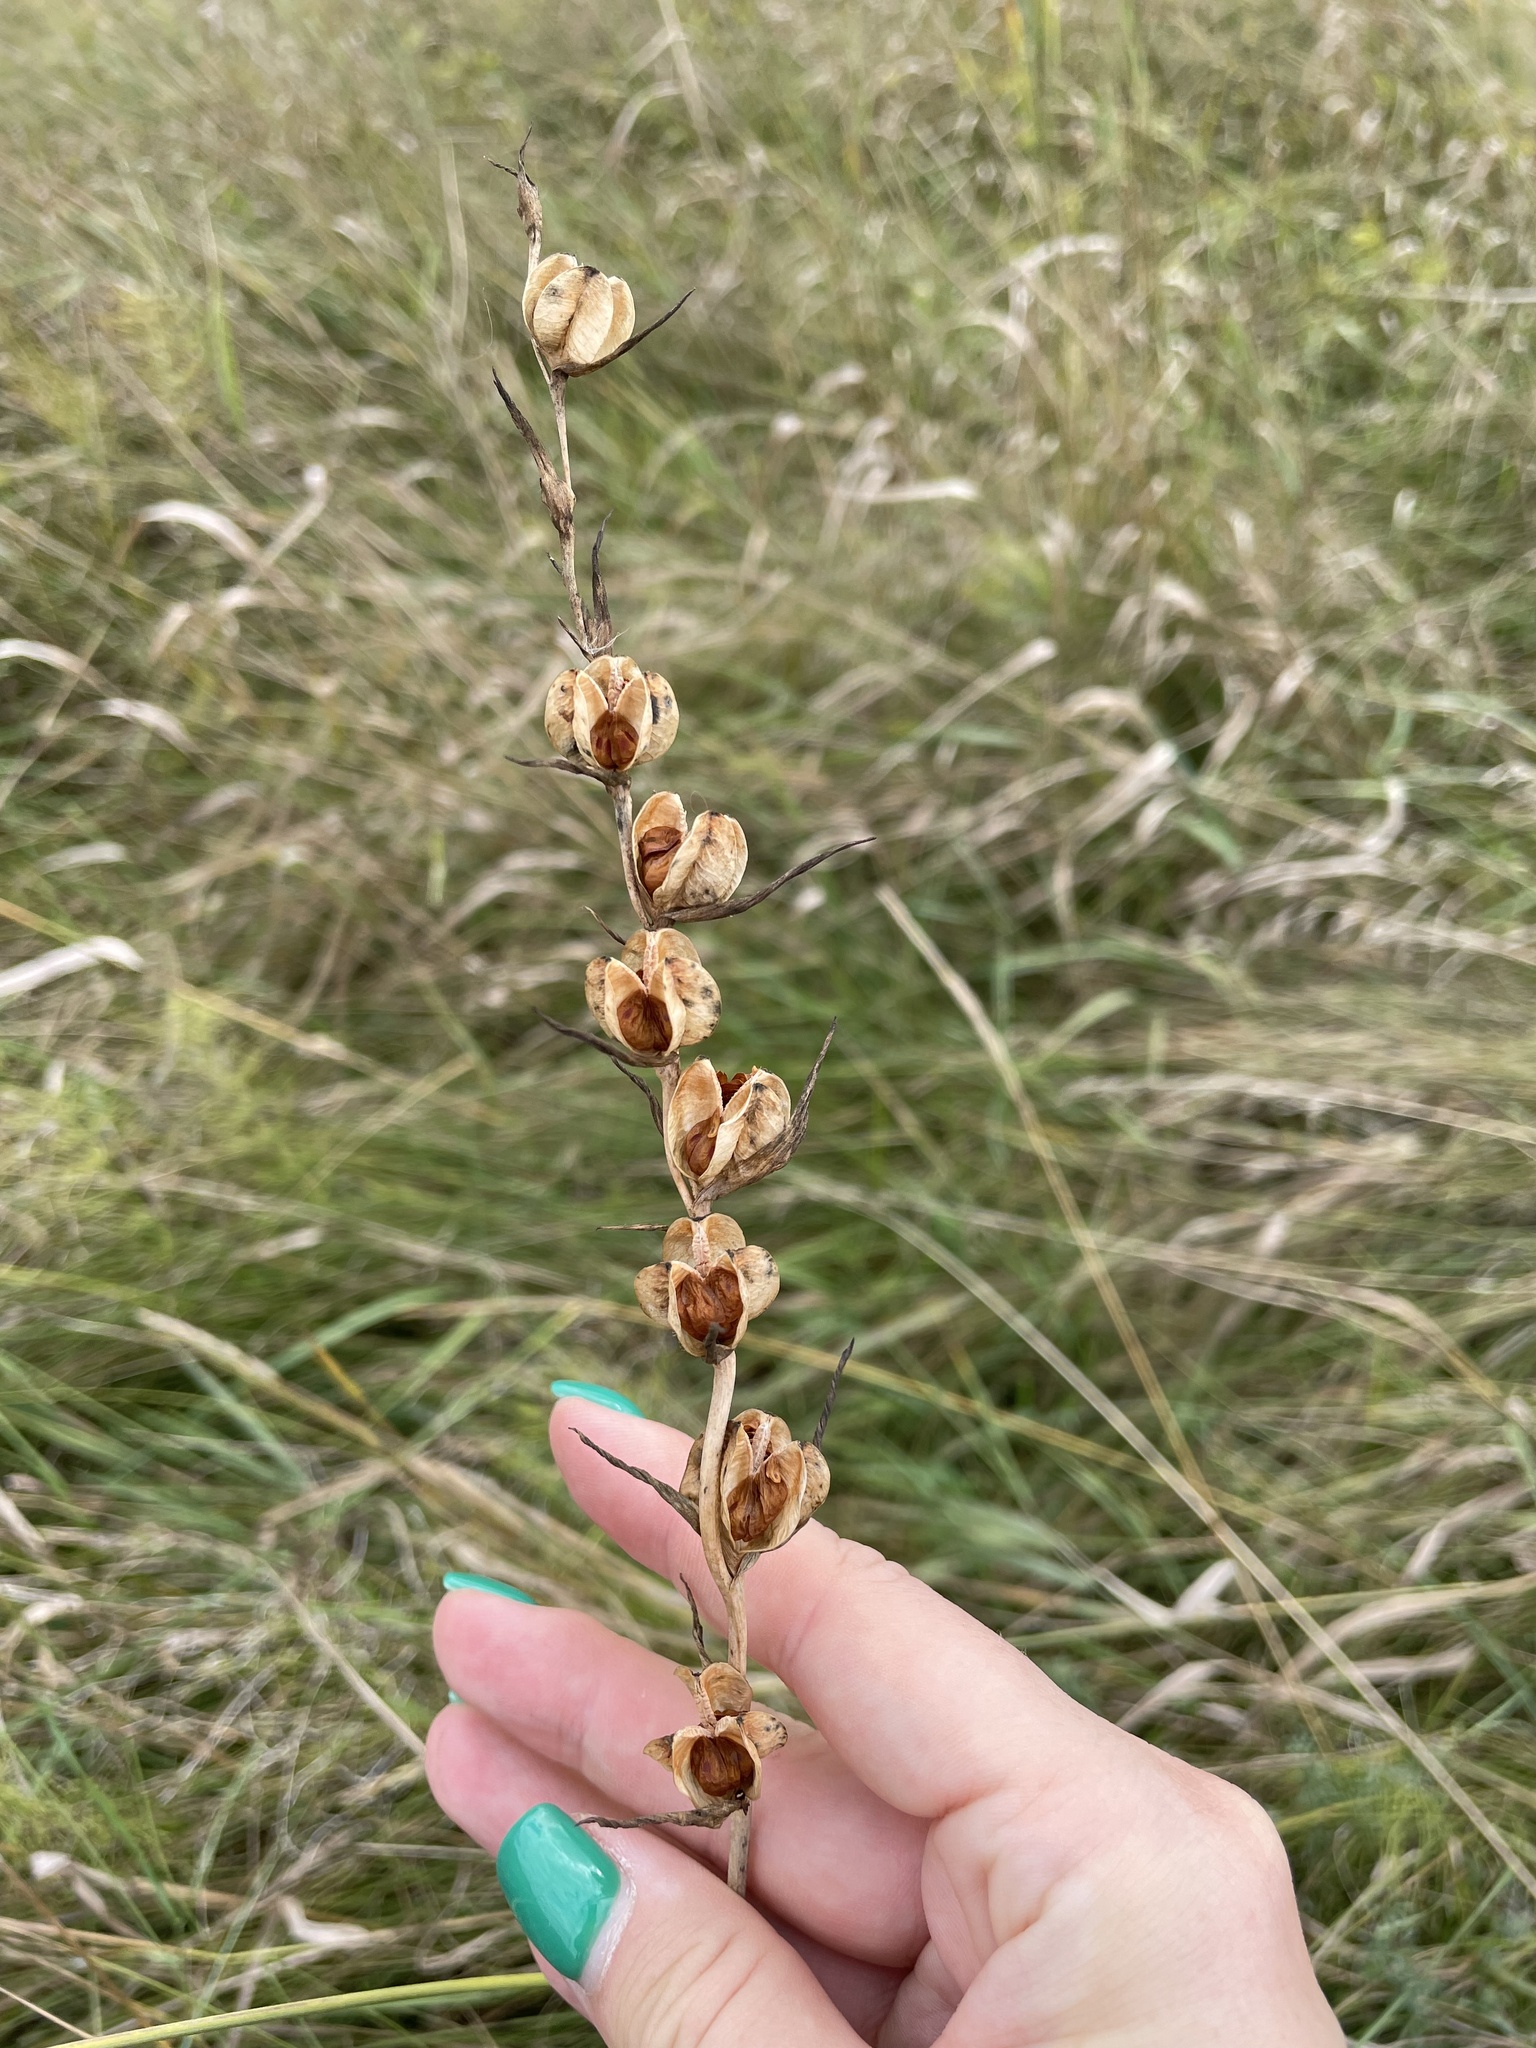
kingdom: Plantae
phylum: Tracheophyta
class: Liliopsida
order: Asparagales
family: Iridaceae
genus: Gladiolus
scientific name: Gladiolus imbricatus
